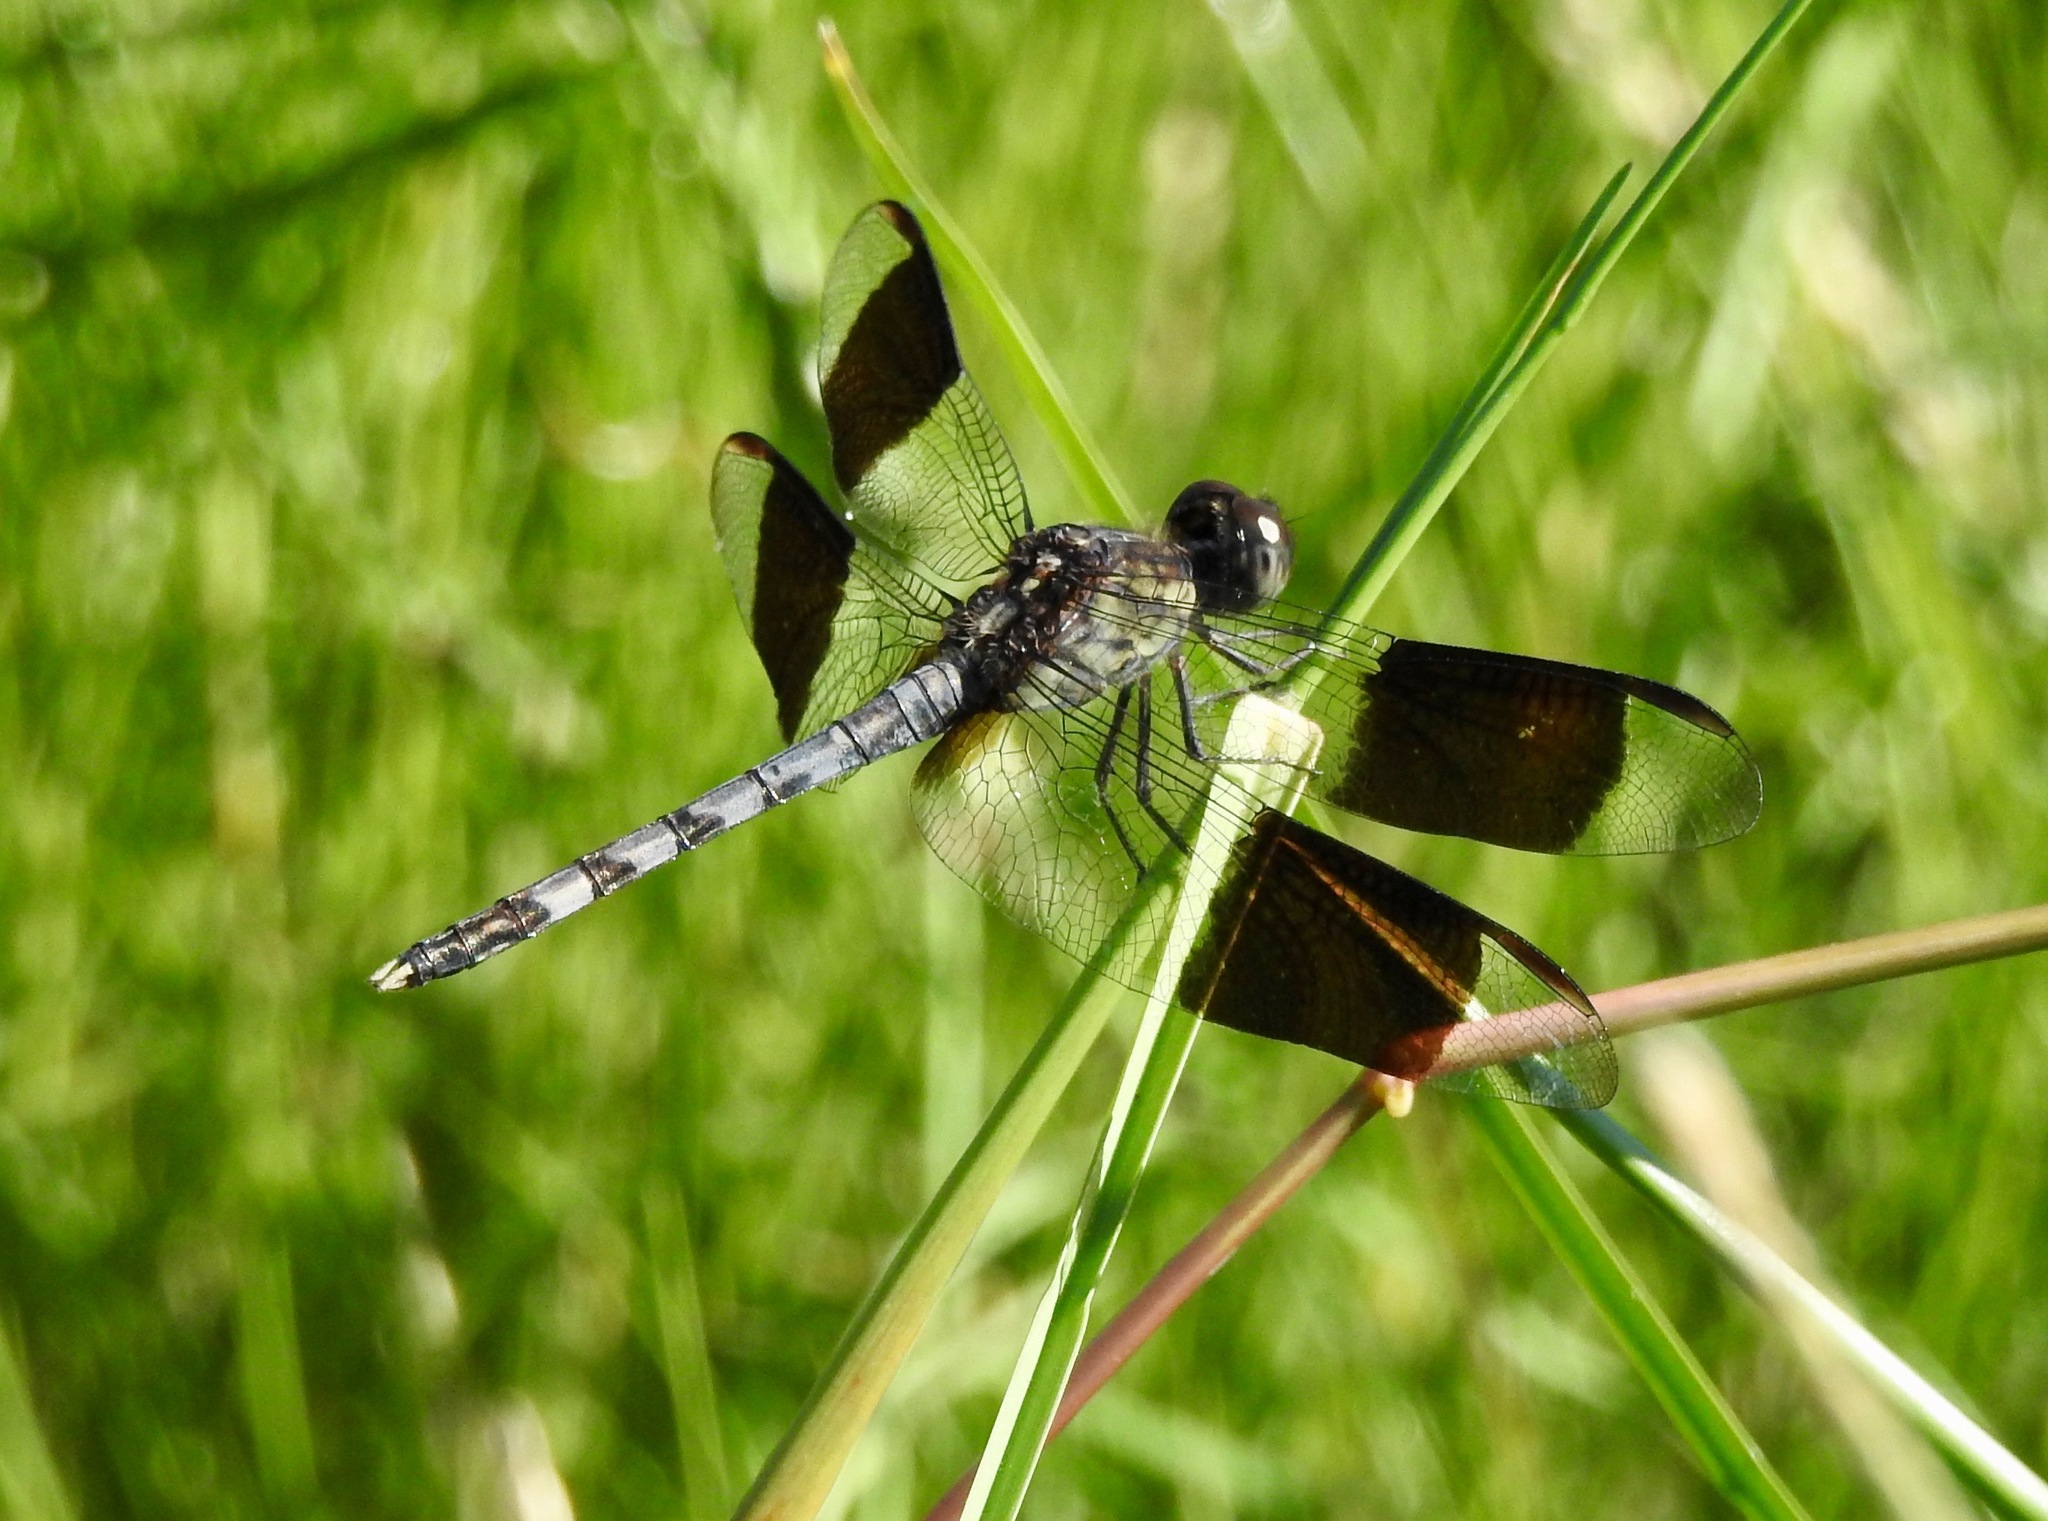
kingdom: Animalia
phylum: Arthropoda
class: Insecta
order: Odonata
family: Libellulidae
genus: Erythrodiplax
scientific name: Erythrodiplax umbrata
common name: Band-winged dragonlet
